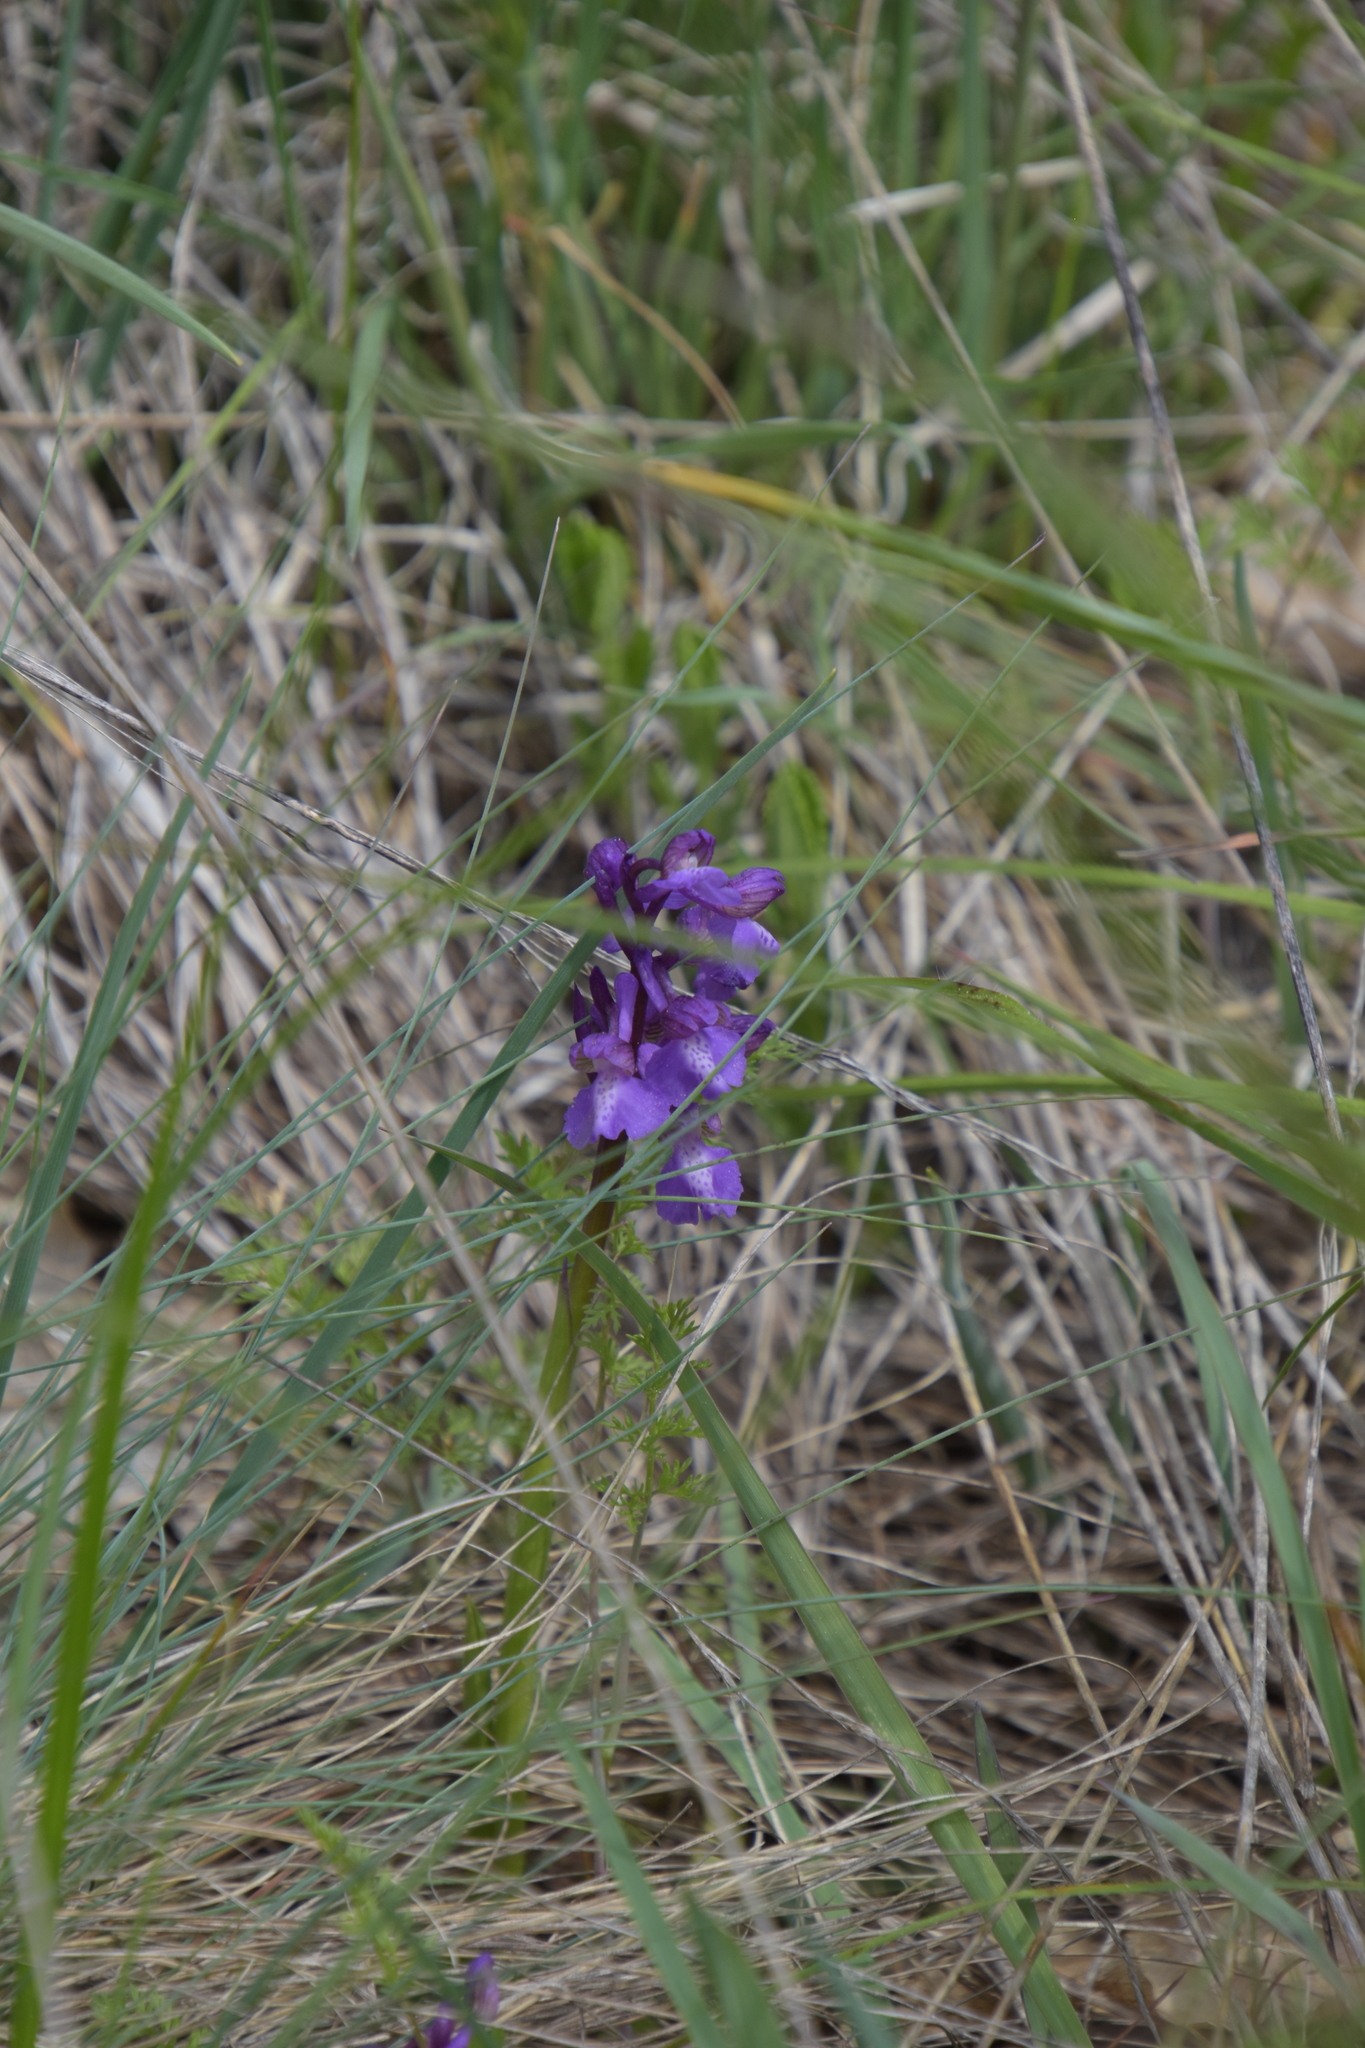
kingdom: Plantae
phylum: Tracheophyta
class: Liliopsida
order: Asparagales
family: Orchidaceae
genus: Anacamptis
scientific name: Anacamptis morio
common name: Green-winged orchid
